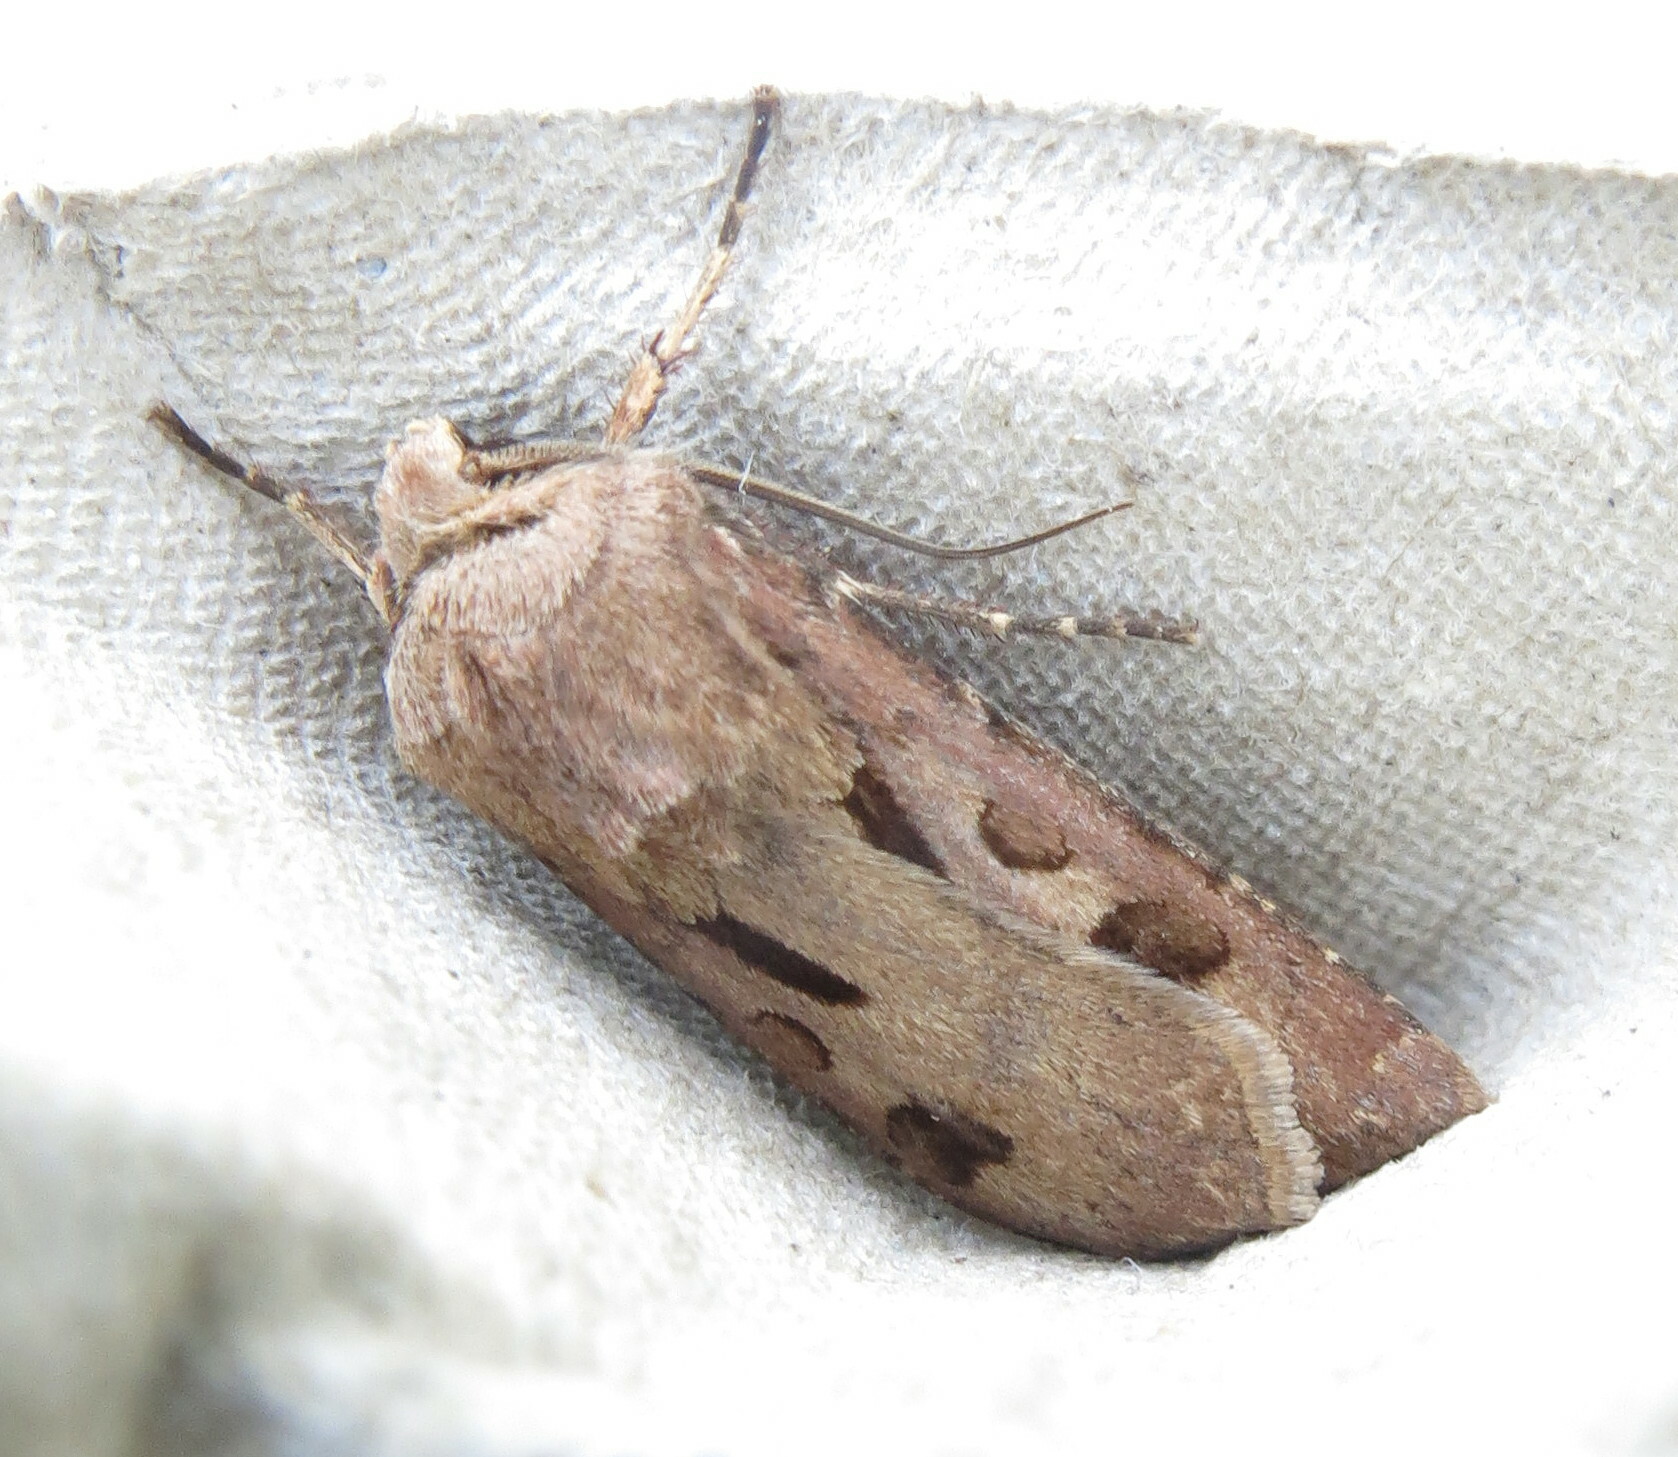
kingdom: Animalia
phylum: Arthropoda
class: Insecta
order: Lepidoptera
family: Noctuidae
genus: Agrotis
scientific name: Agrotis exclamationis
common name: Heart and dart
